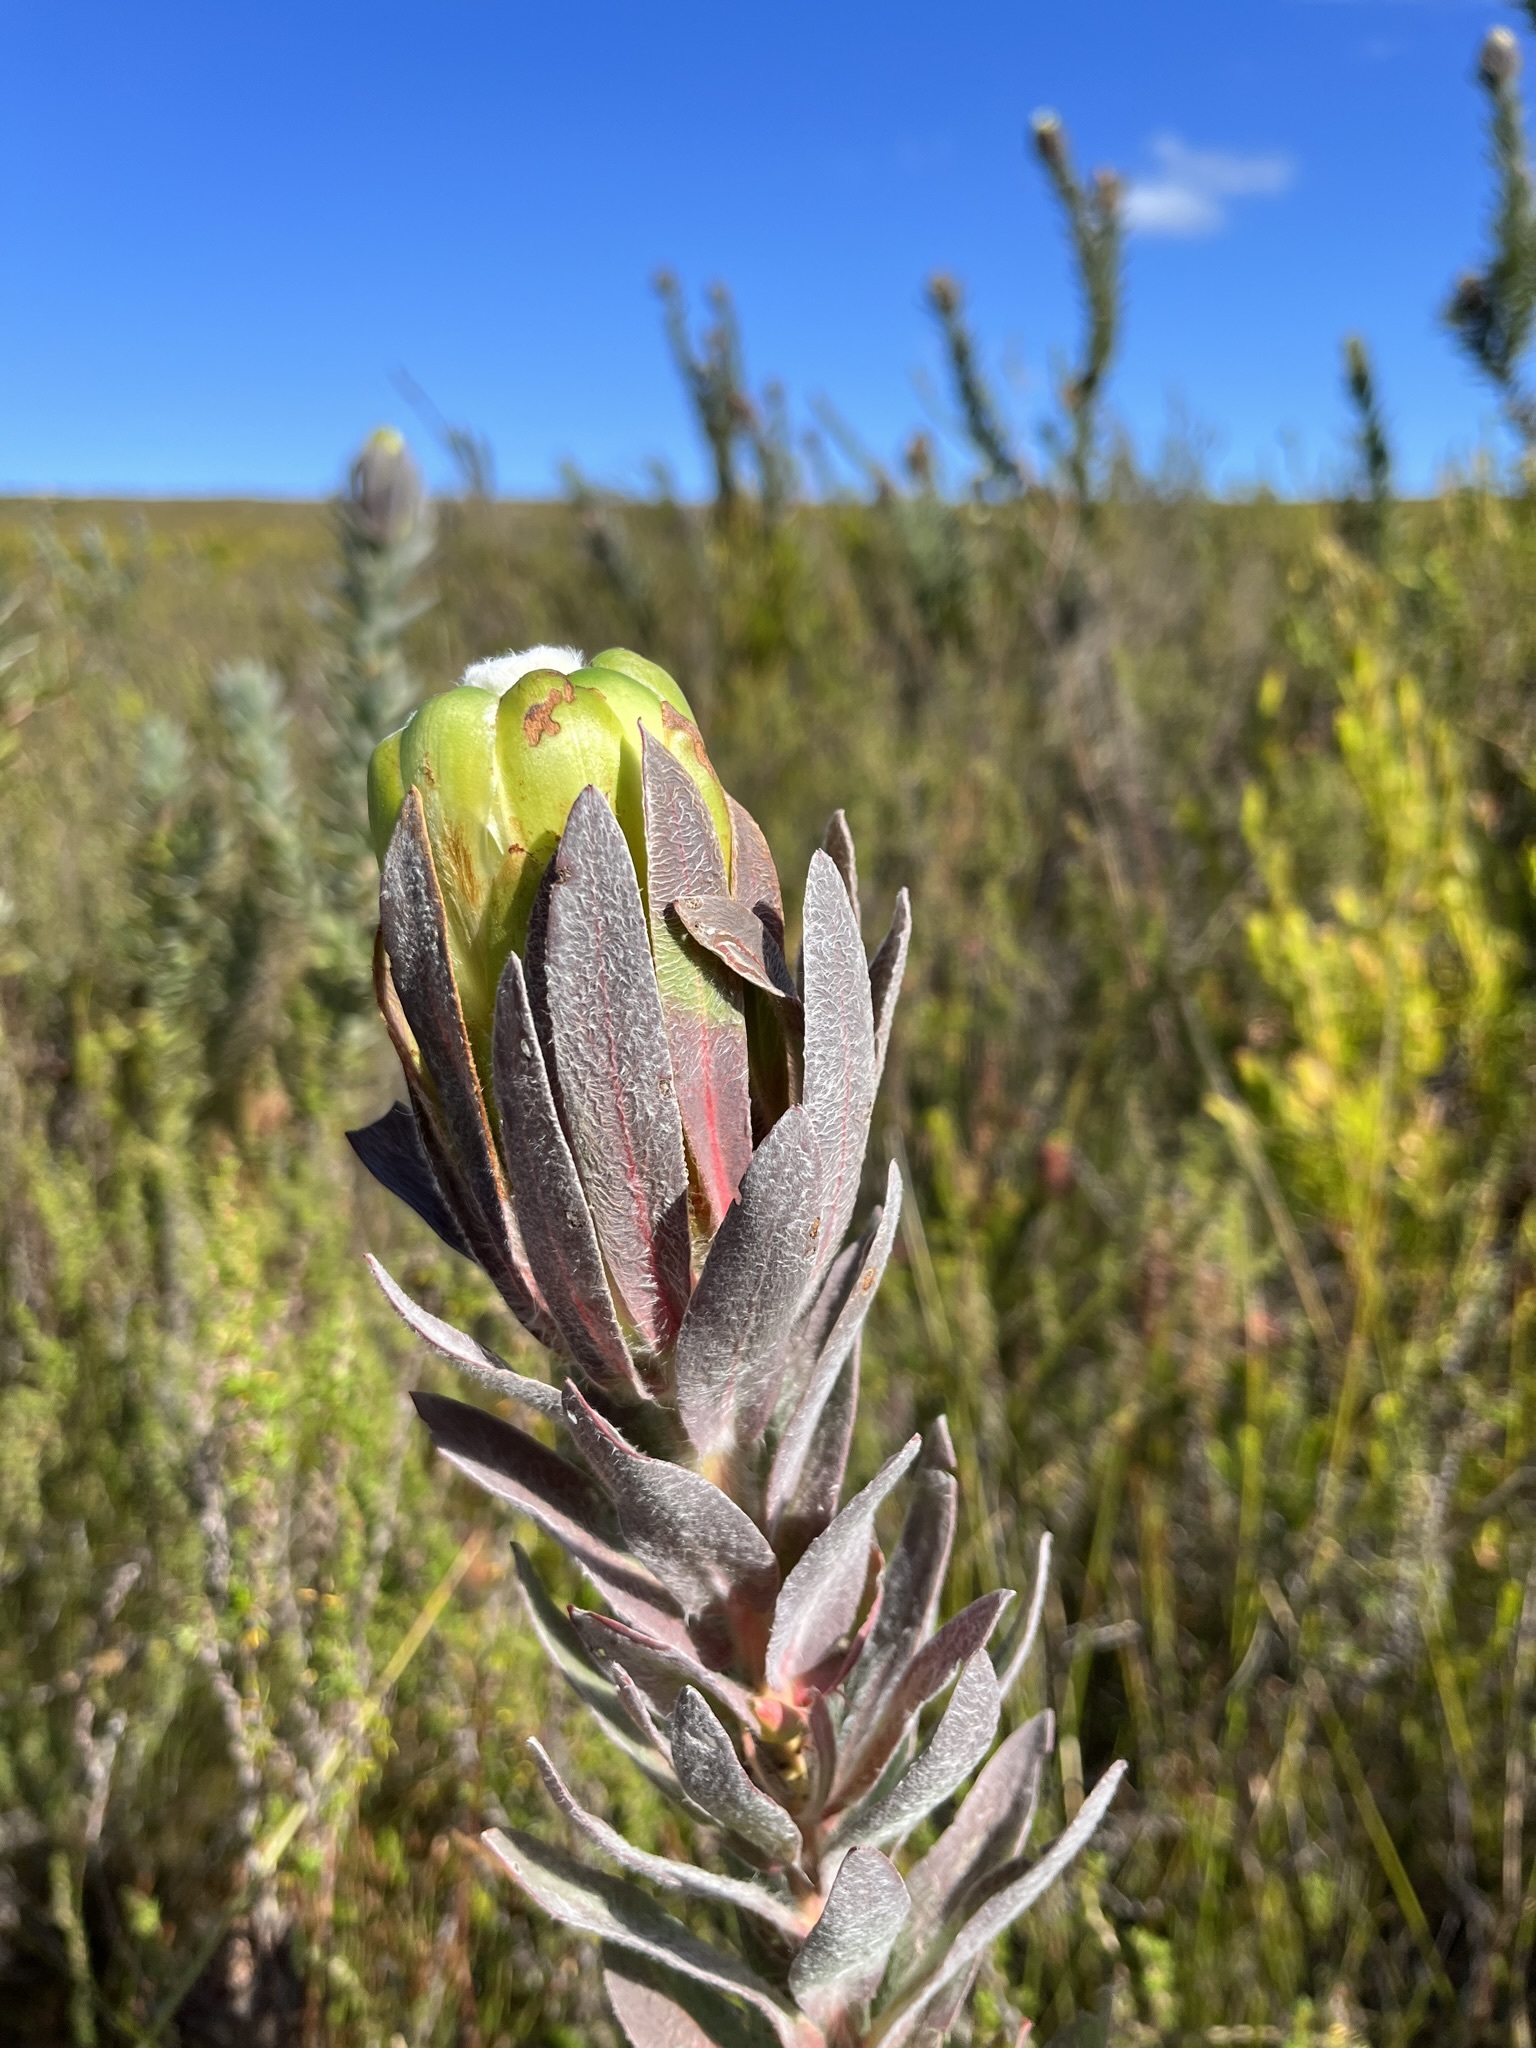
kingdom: Plantae
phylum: Tracheophyta
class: Magnoliopsida
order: Proteales
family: Proteaceae
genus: Protea
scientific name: Protea coronata
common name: Green sugarbush
